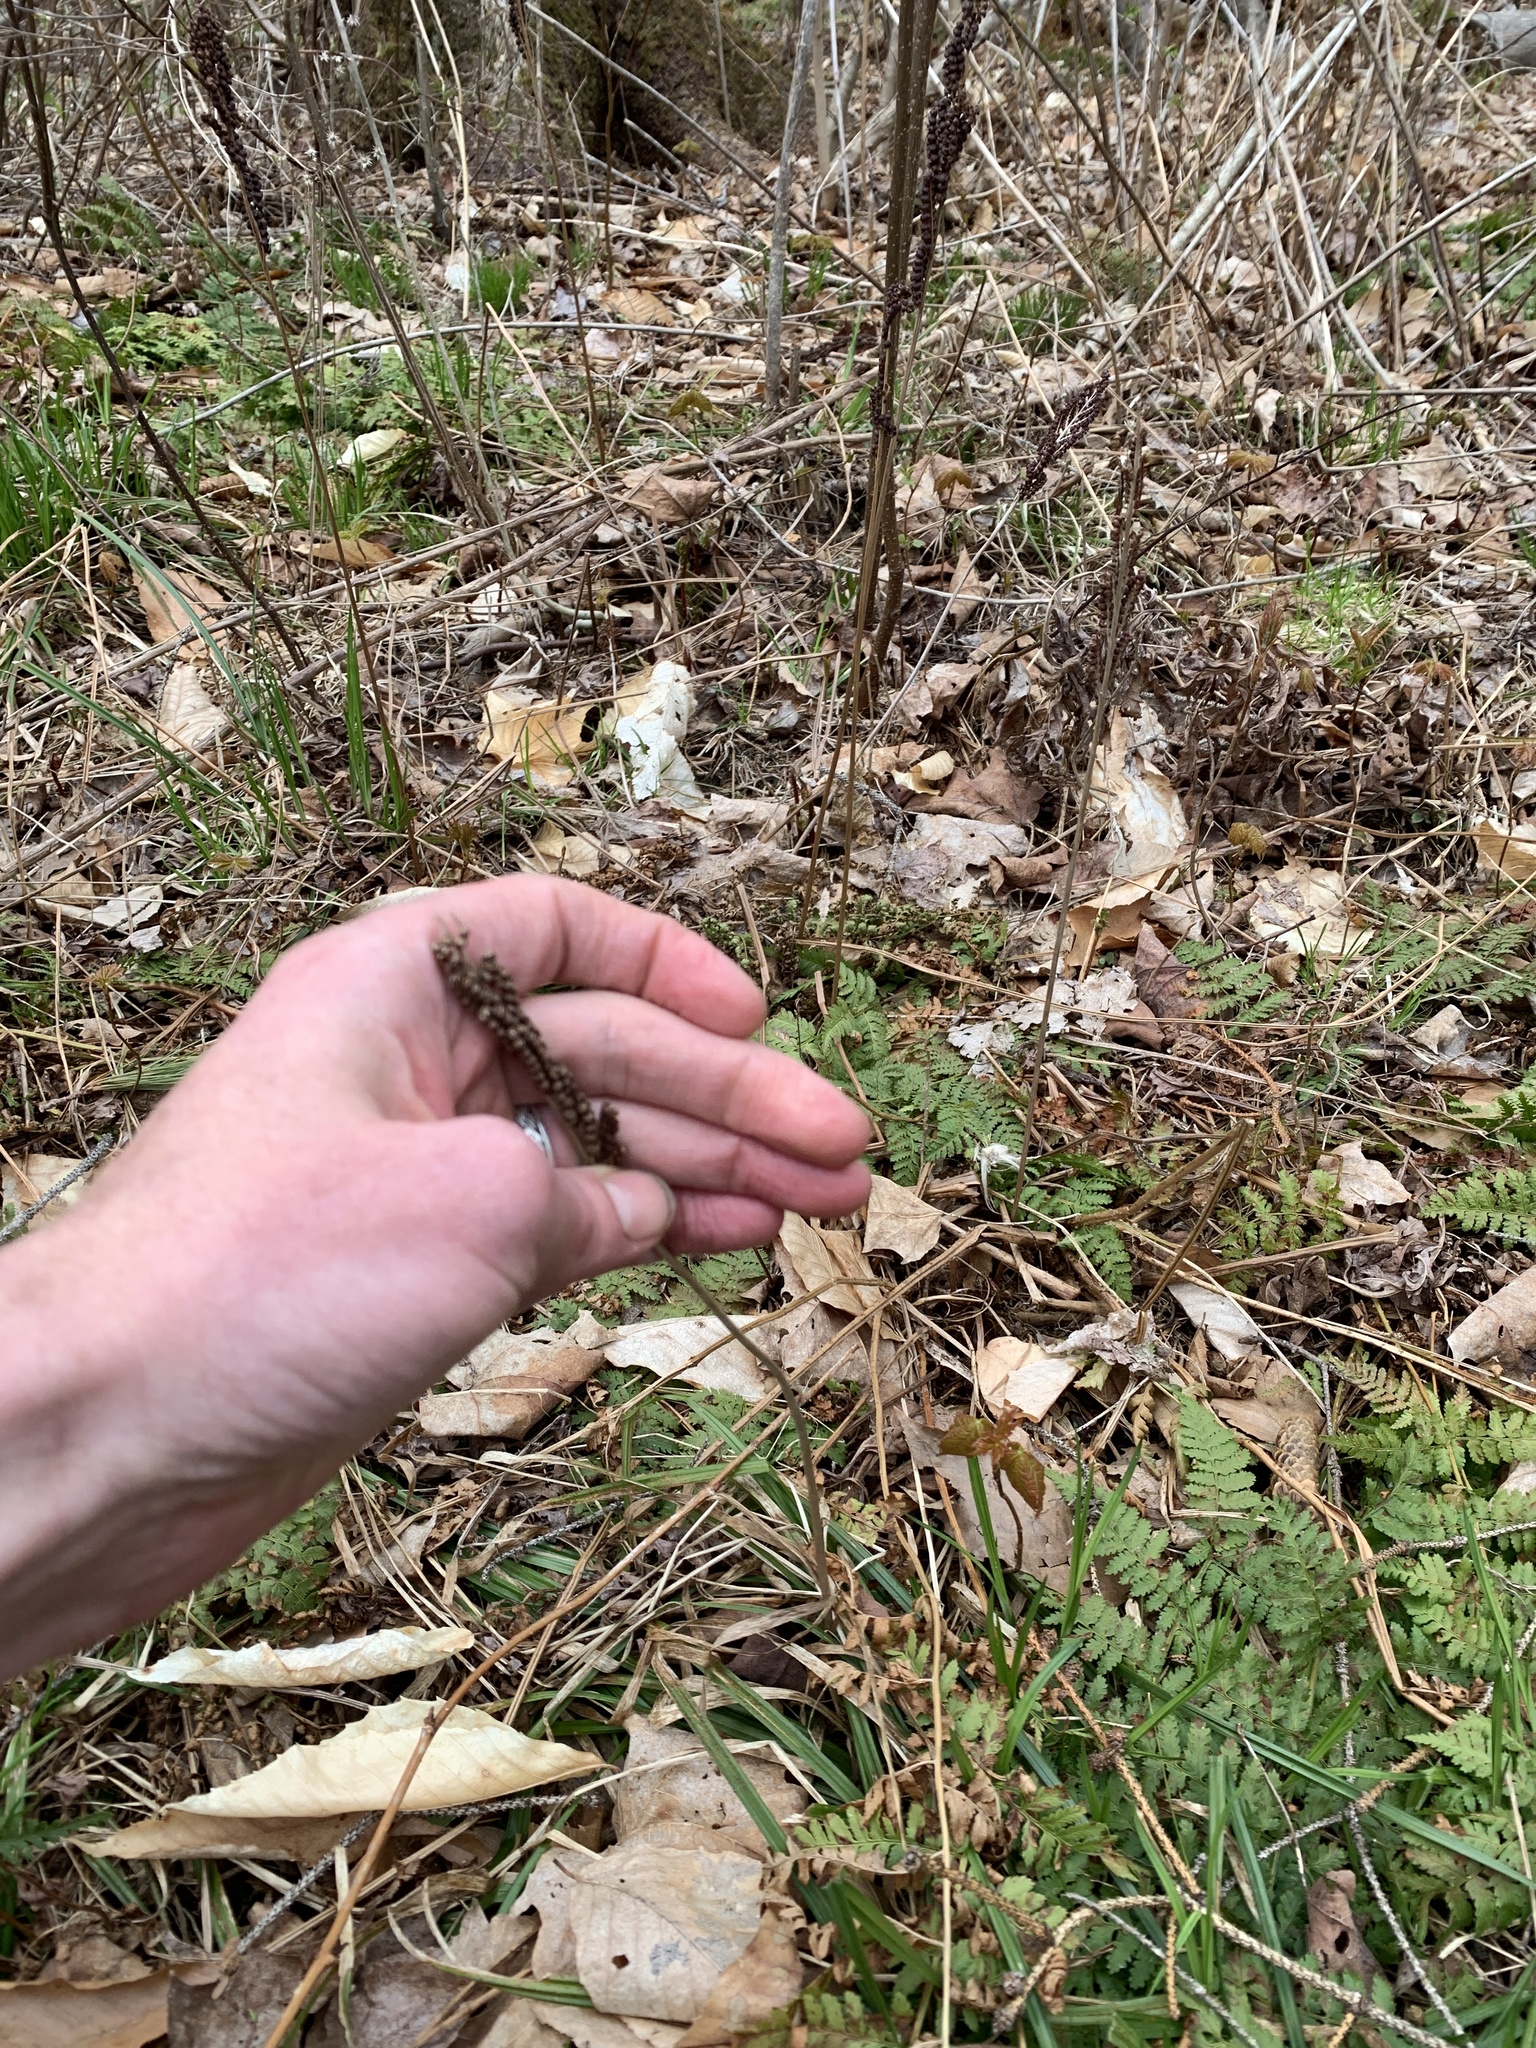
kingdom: Plantae
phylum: Tracheophyta
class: Polypodiopsida
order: Polypodiales
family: Onocleaceae
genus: Onoclea
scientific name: Onoclea sensibilis
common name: Sensitive fern
